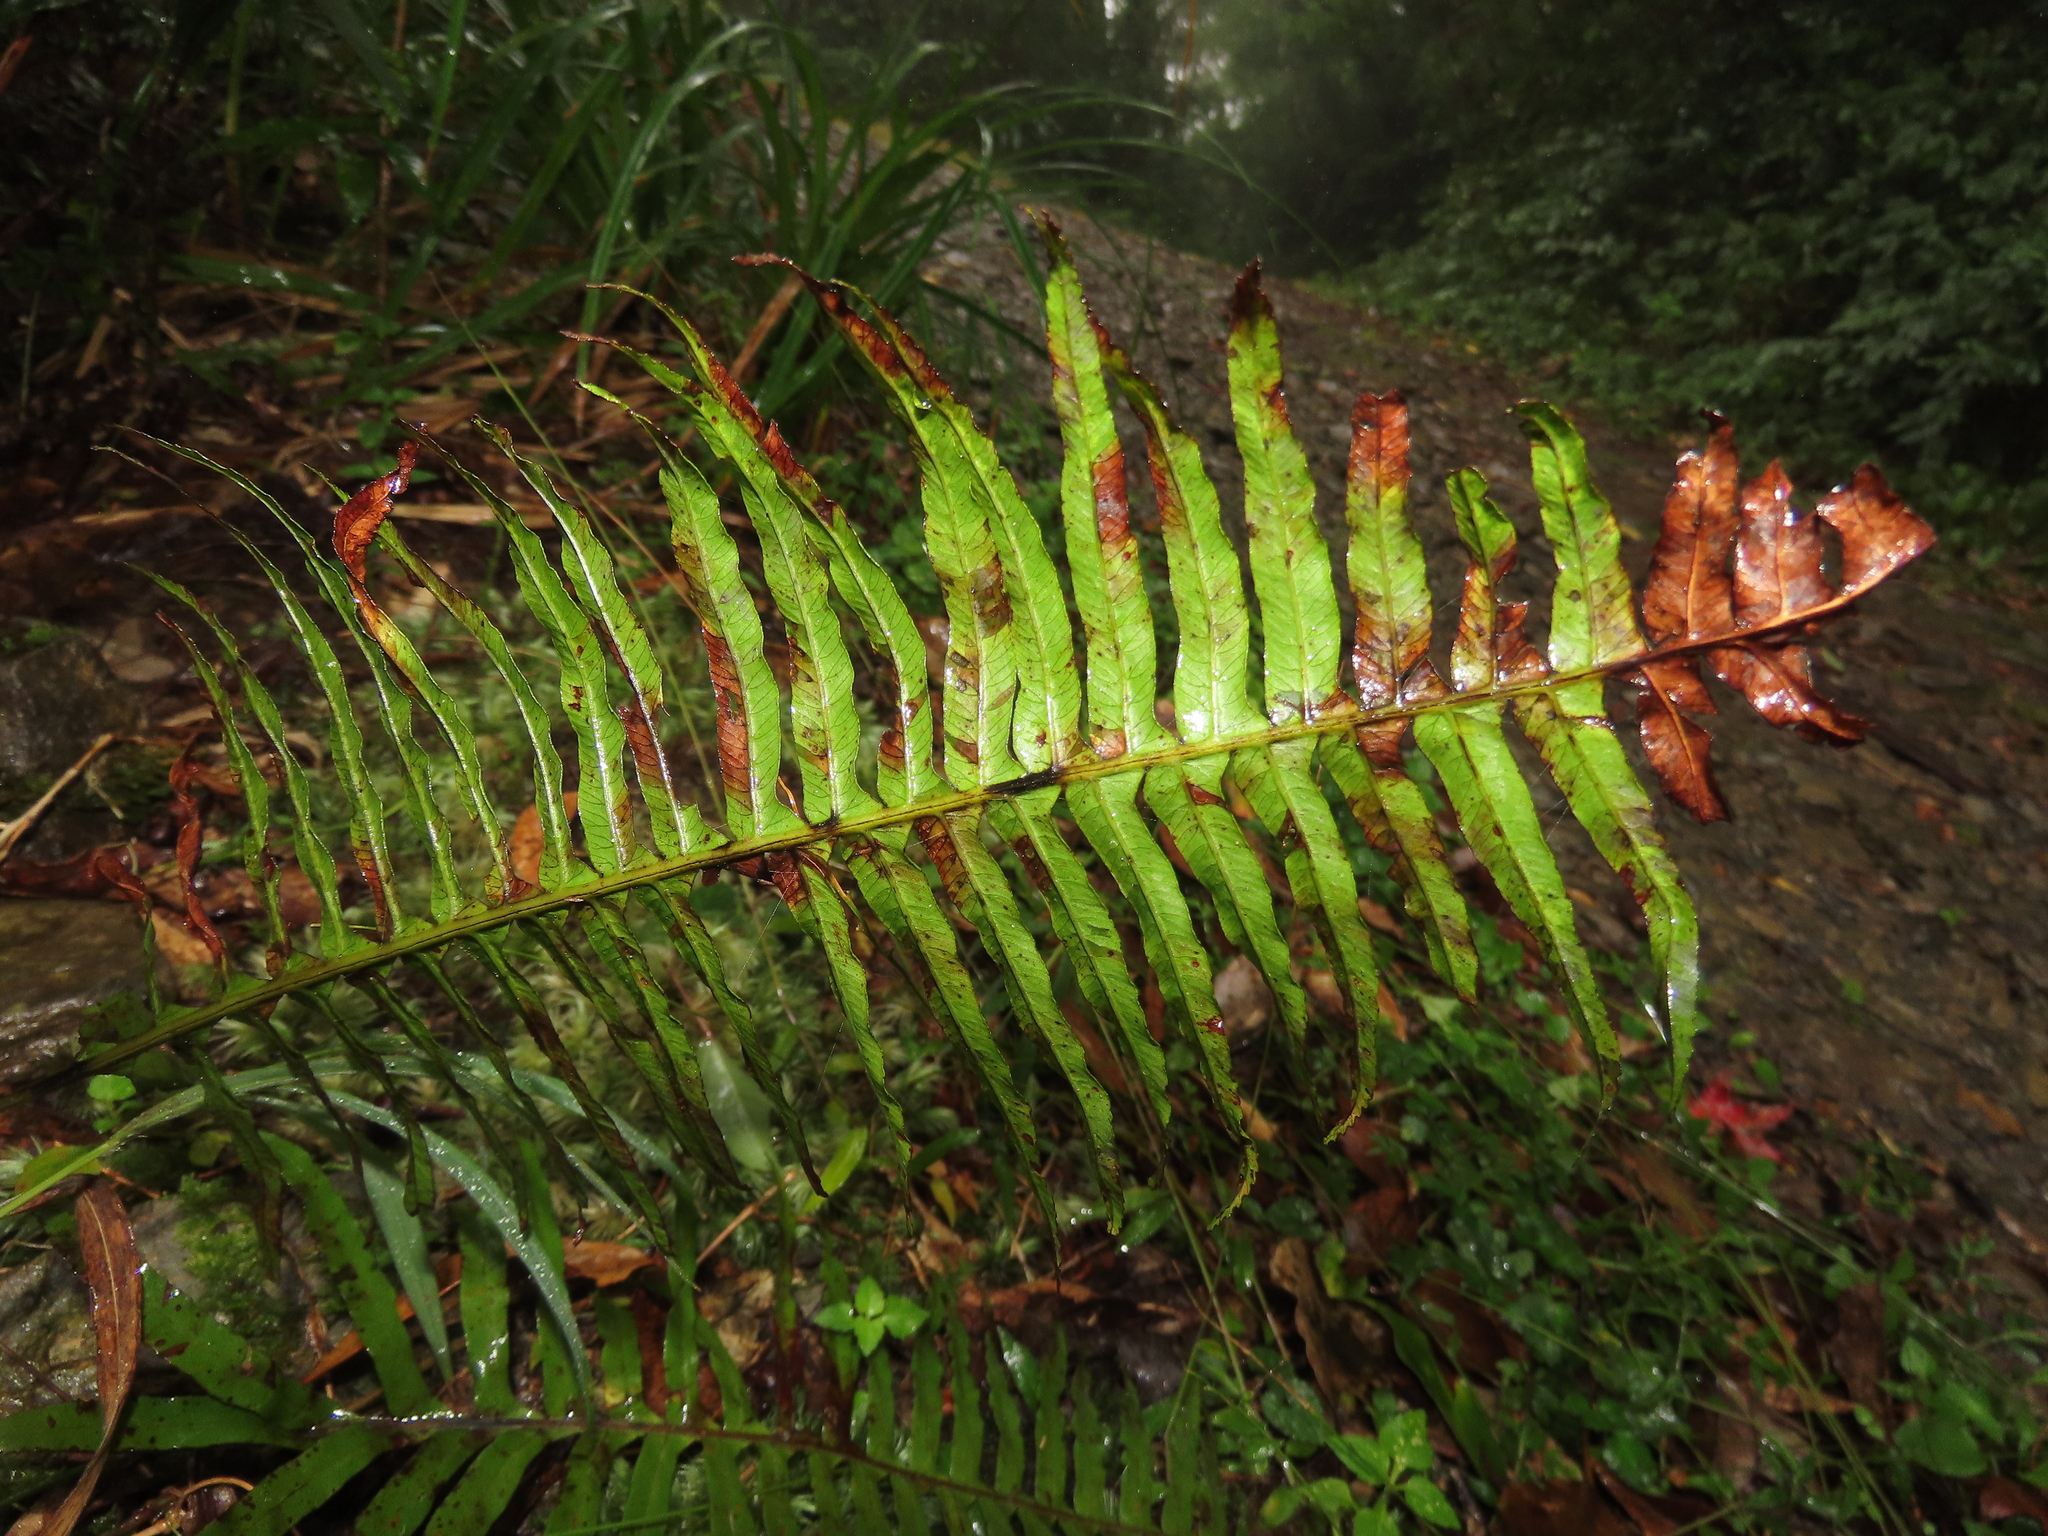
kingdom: Plantae
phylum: Tracheophyta
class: Polypodiopsida
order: Cyatheales
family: Plagiogyriaceae
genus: Plagiogyria
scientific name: Plagiogyria falcata
